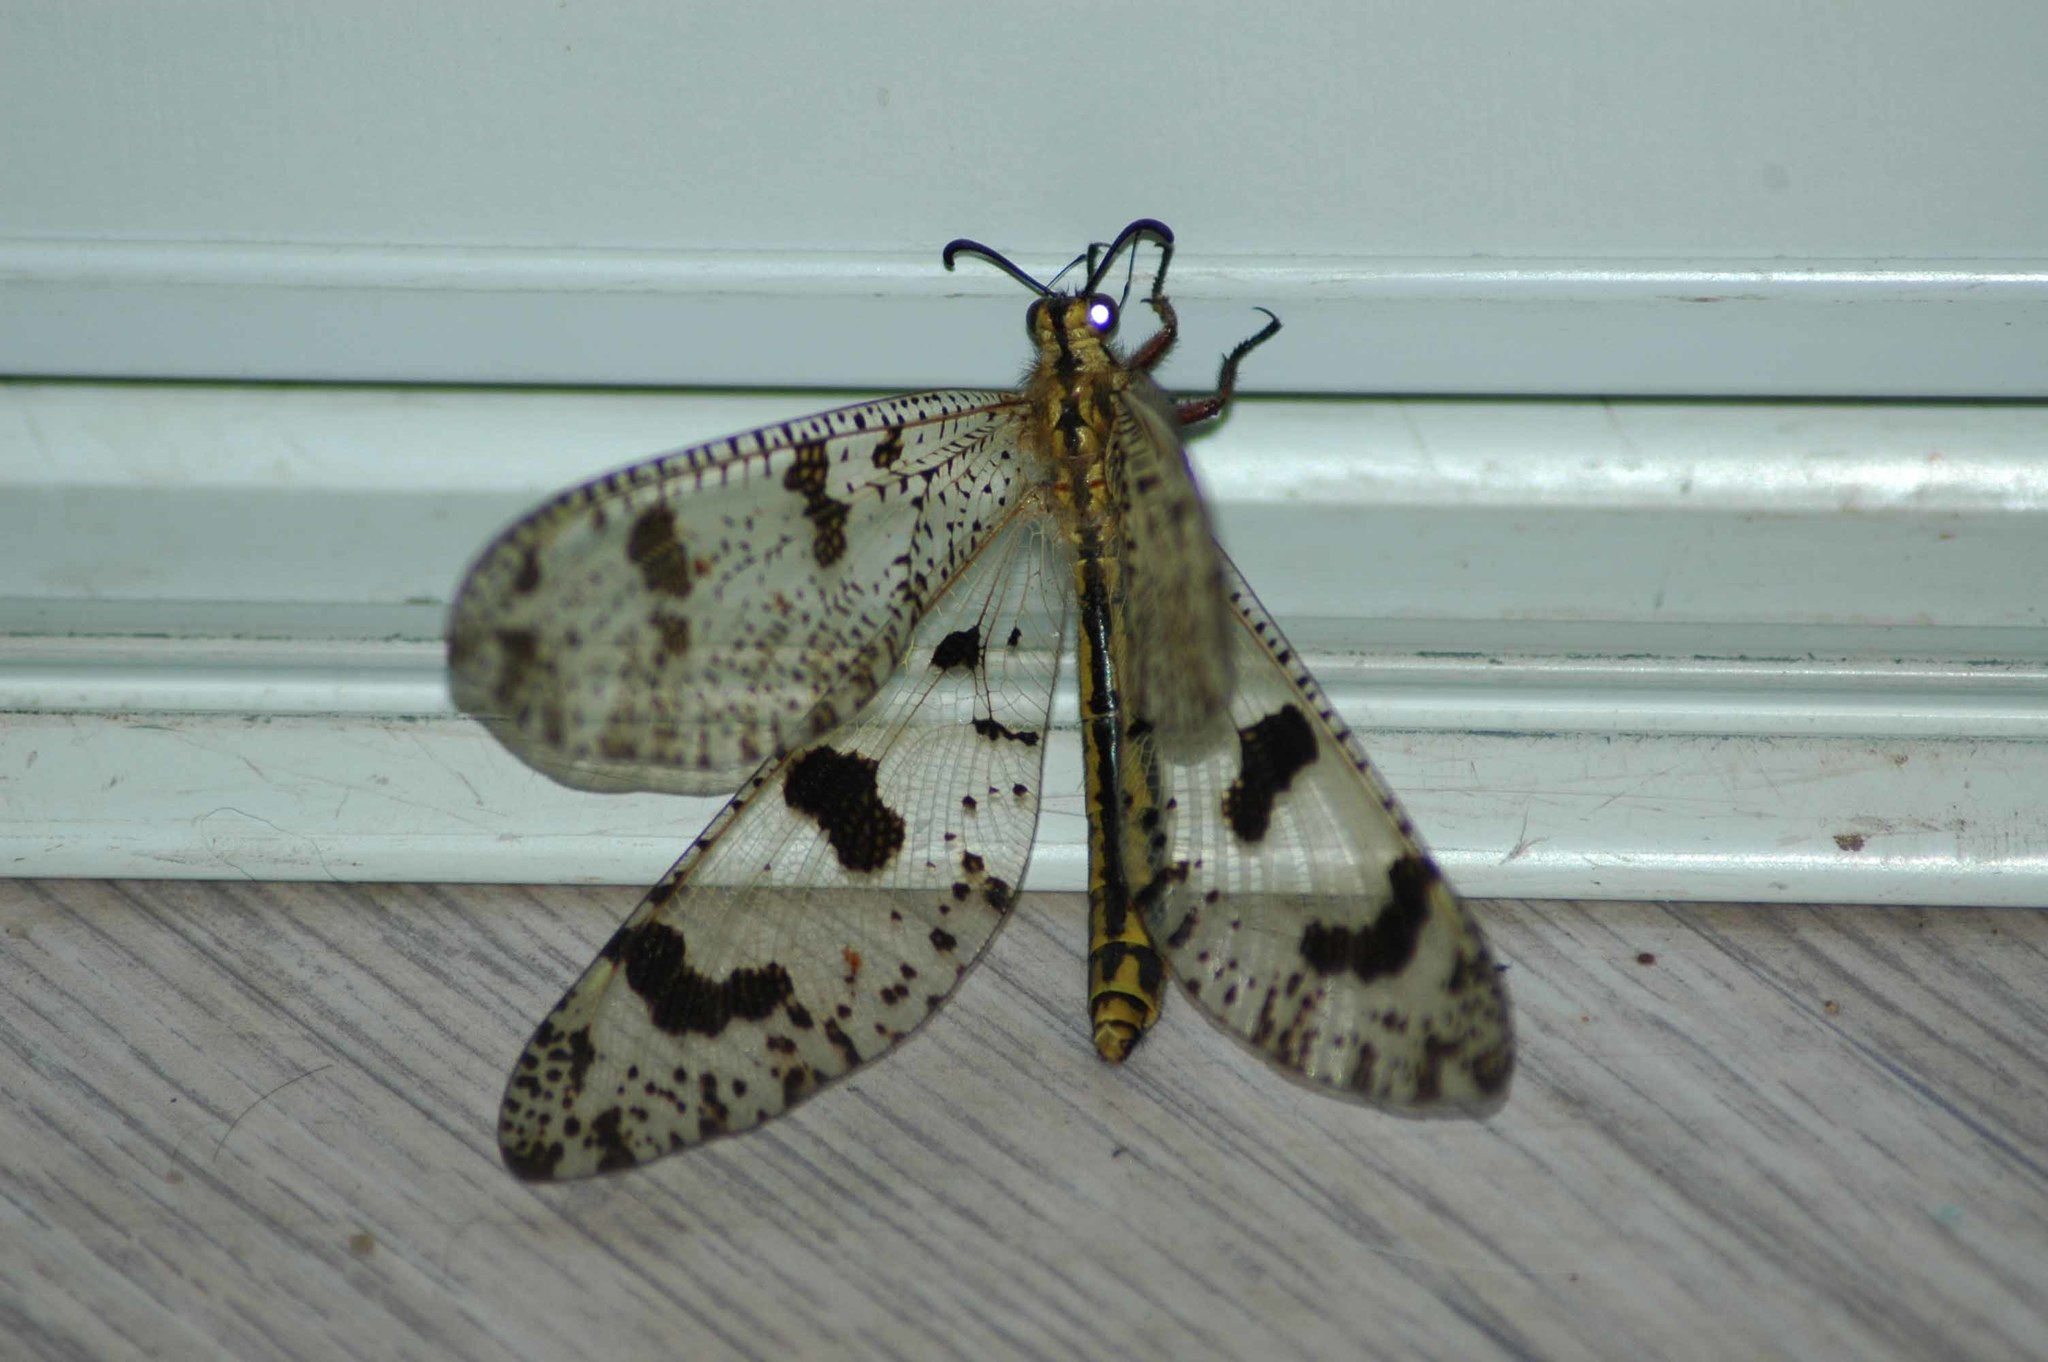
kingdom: Animalia
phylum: Arthropoda
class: Insecta
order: Neuroptera
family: Myrmeleontidae
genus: Palpares
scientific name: Palpares libelluloides
